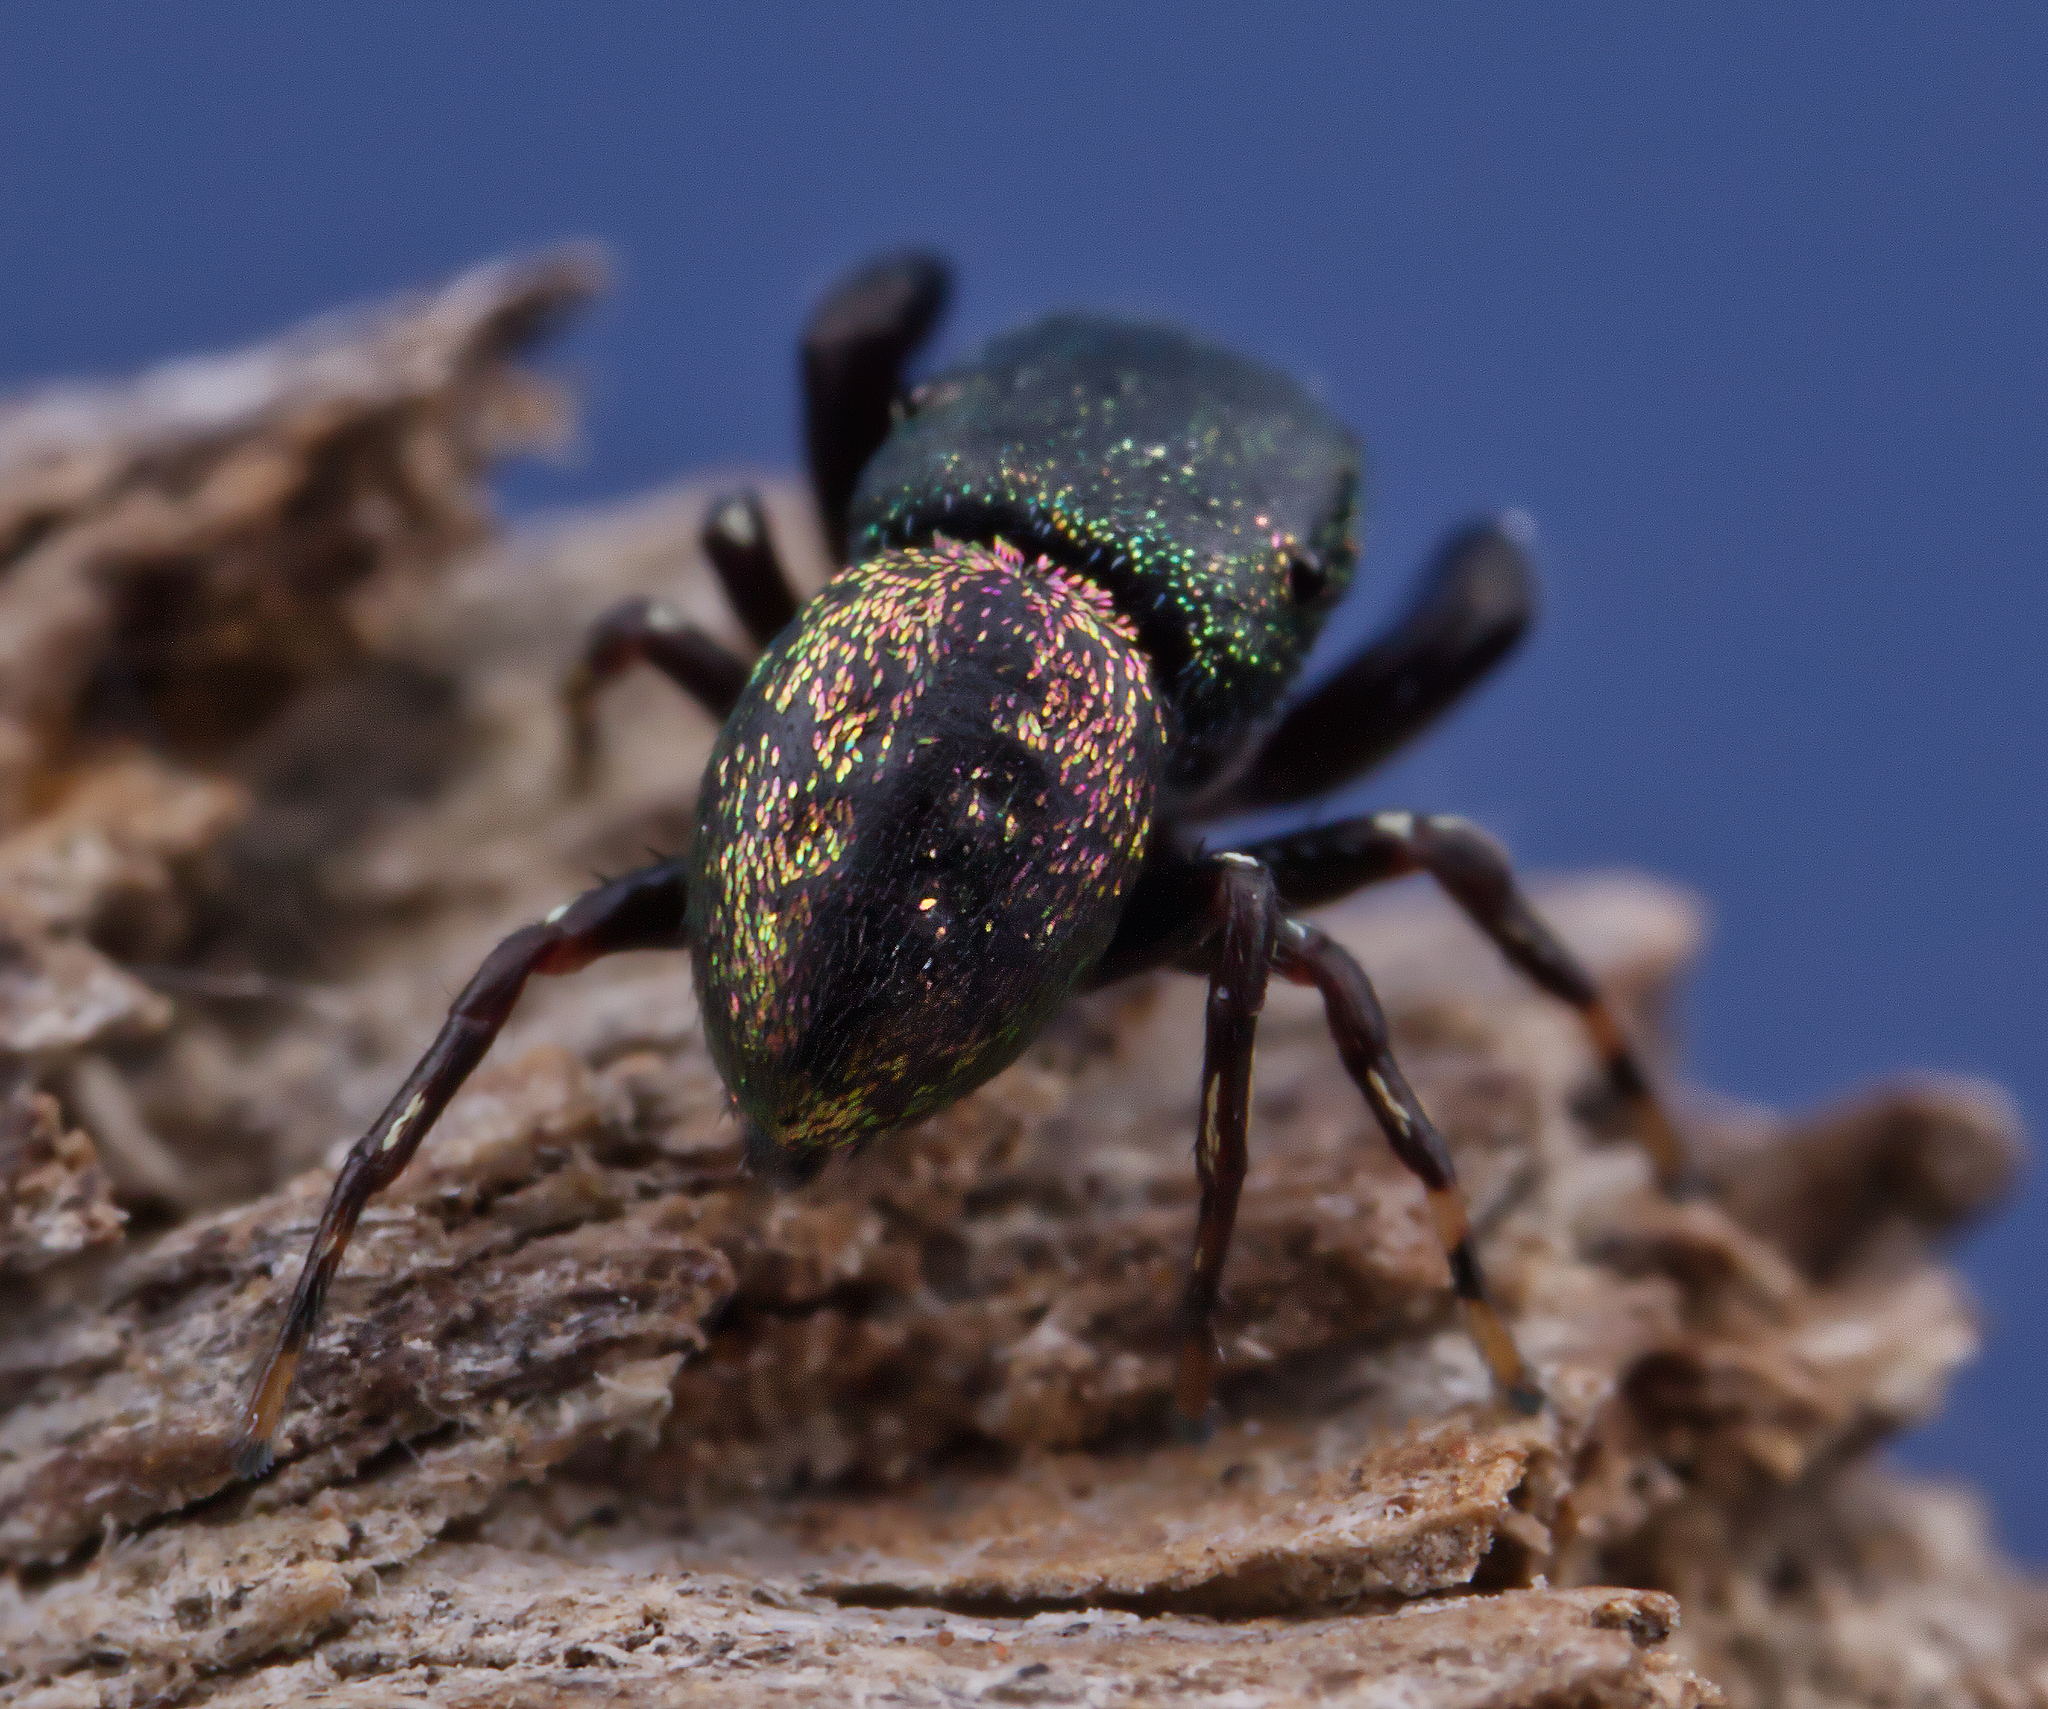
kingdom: Animalia
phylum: Arthropoda
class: Arachnida
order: Araneae
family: Salticidae
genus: Sassacus
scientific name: Sassacus cyaneus
